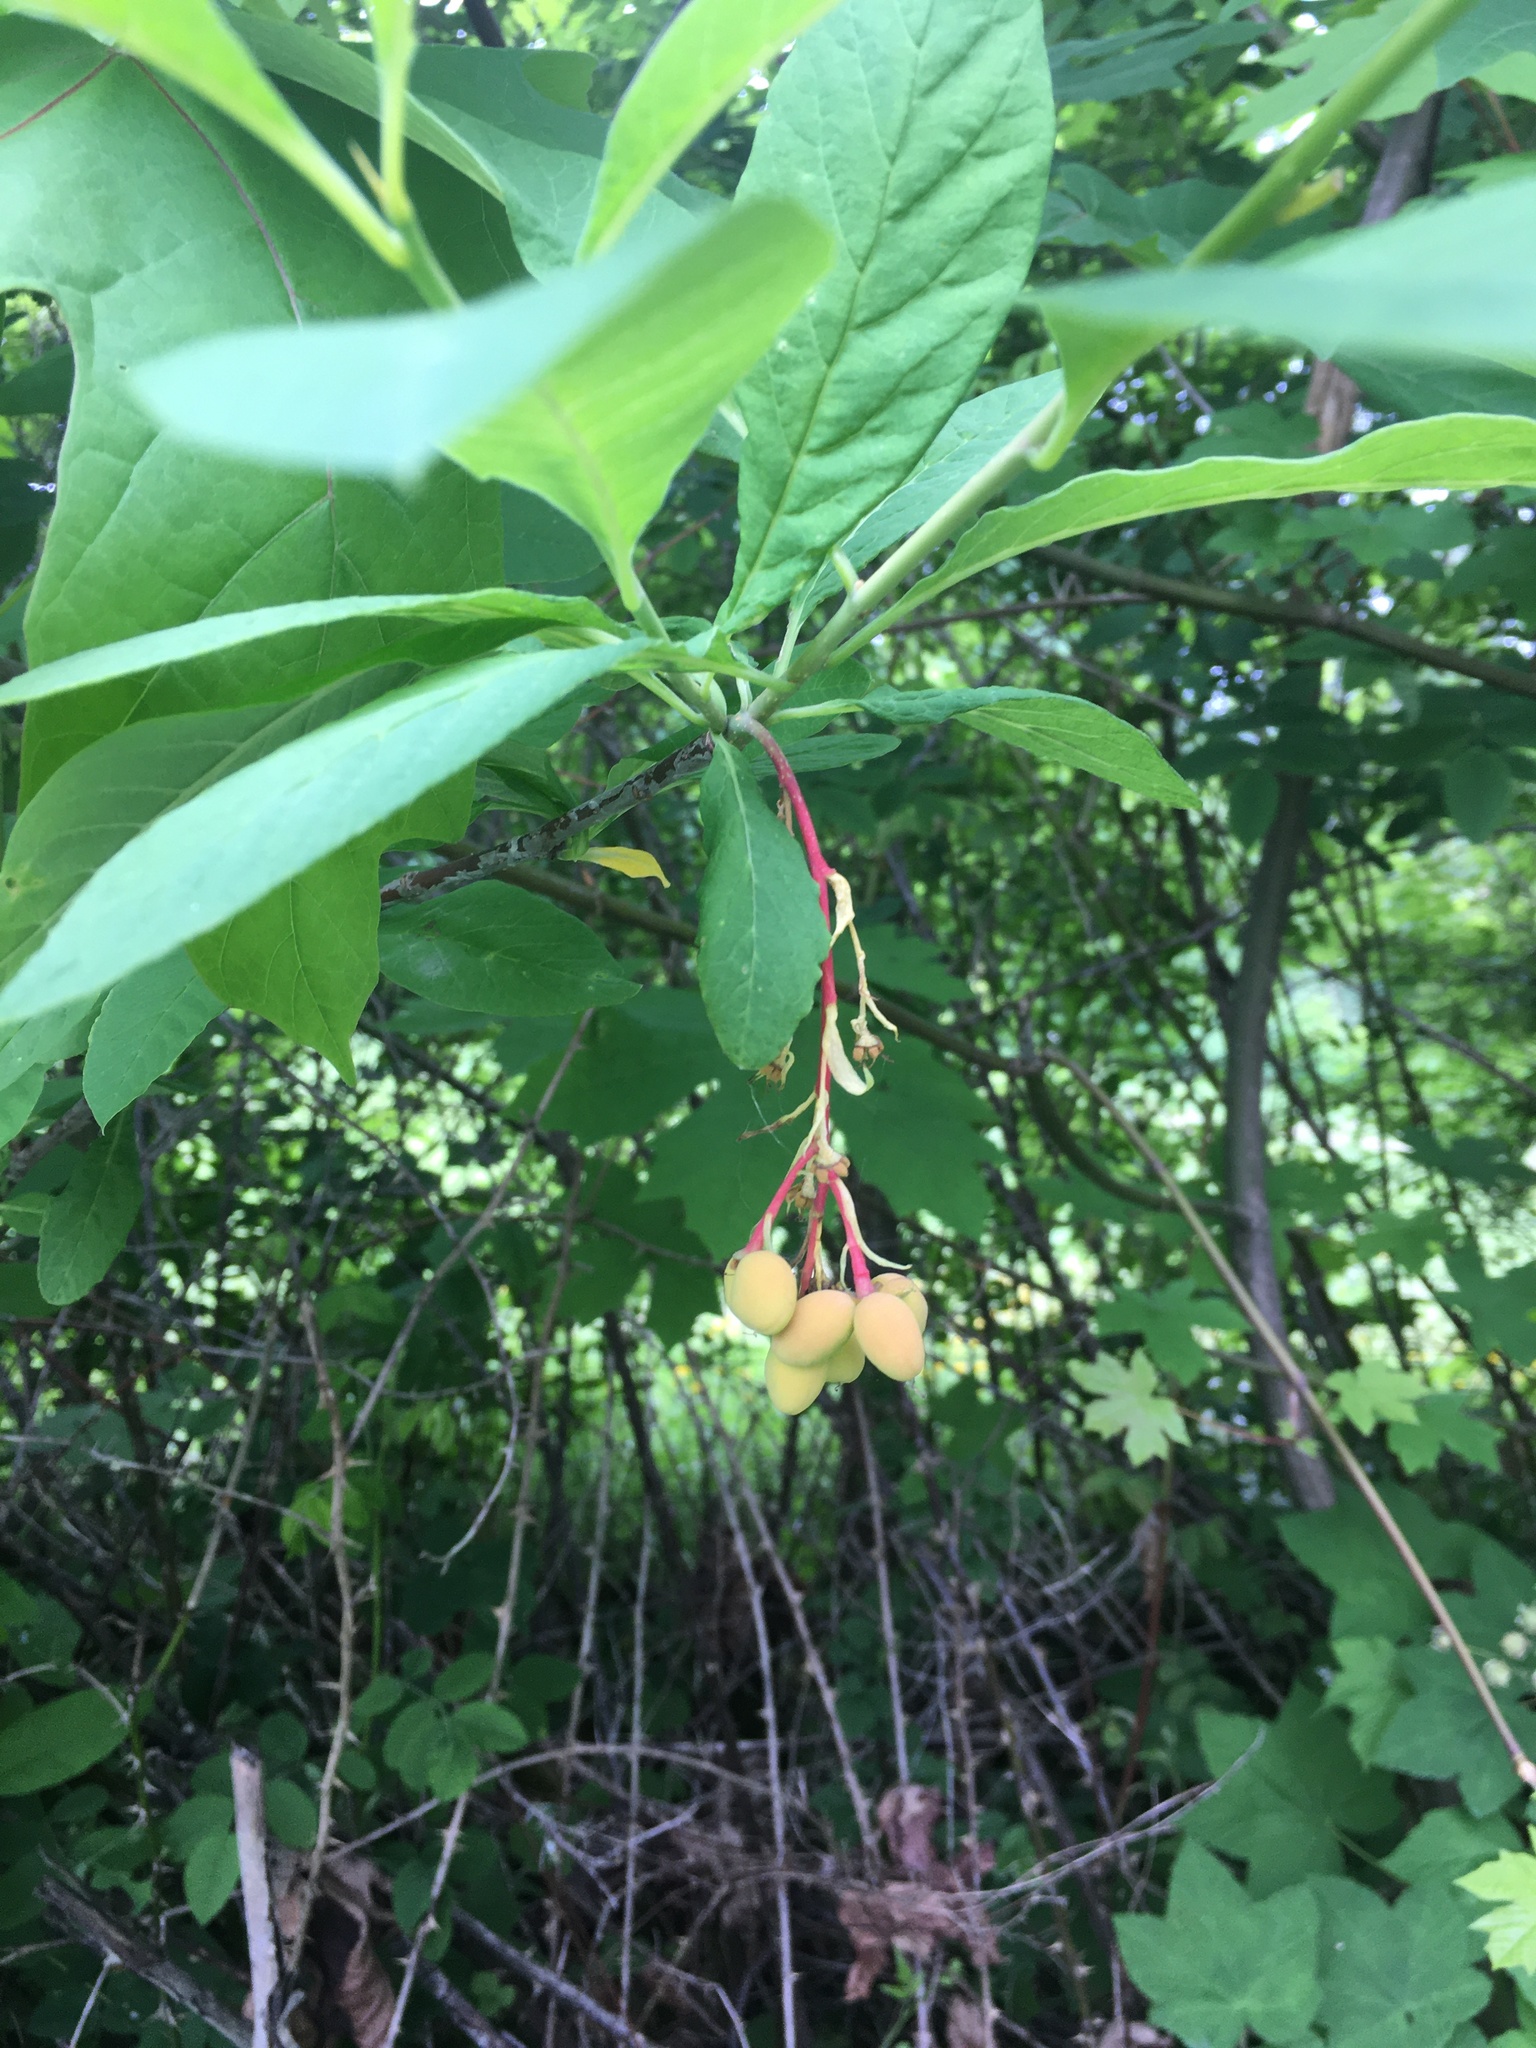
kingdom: Plantae
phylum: Tracheophyta
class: Magnoliopsida
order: Rosales
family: Rosaceae
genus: Oemleria
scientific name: Oemleria cerasiformis
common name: Osoberry
